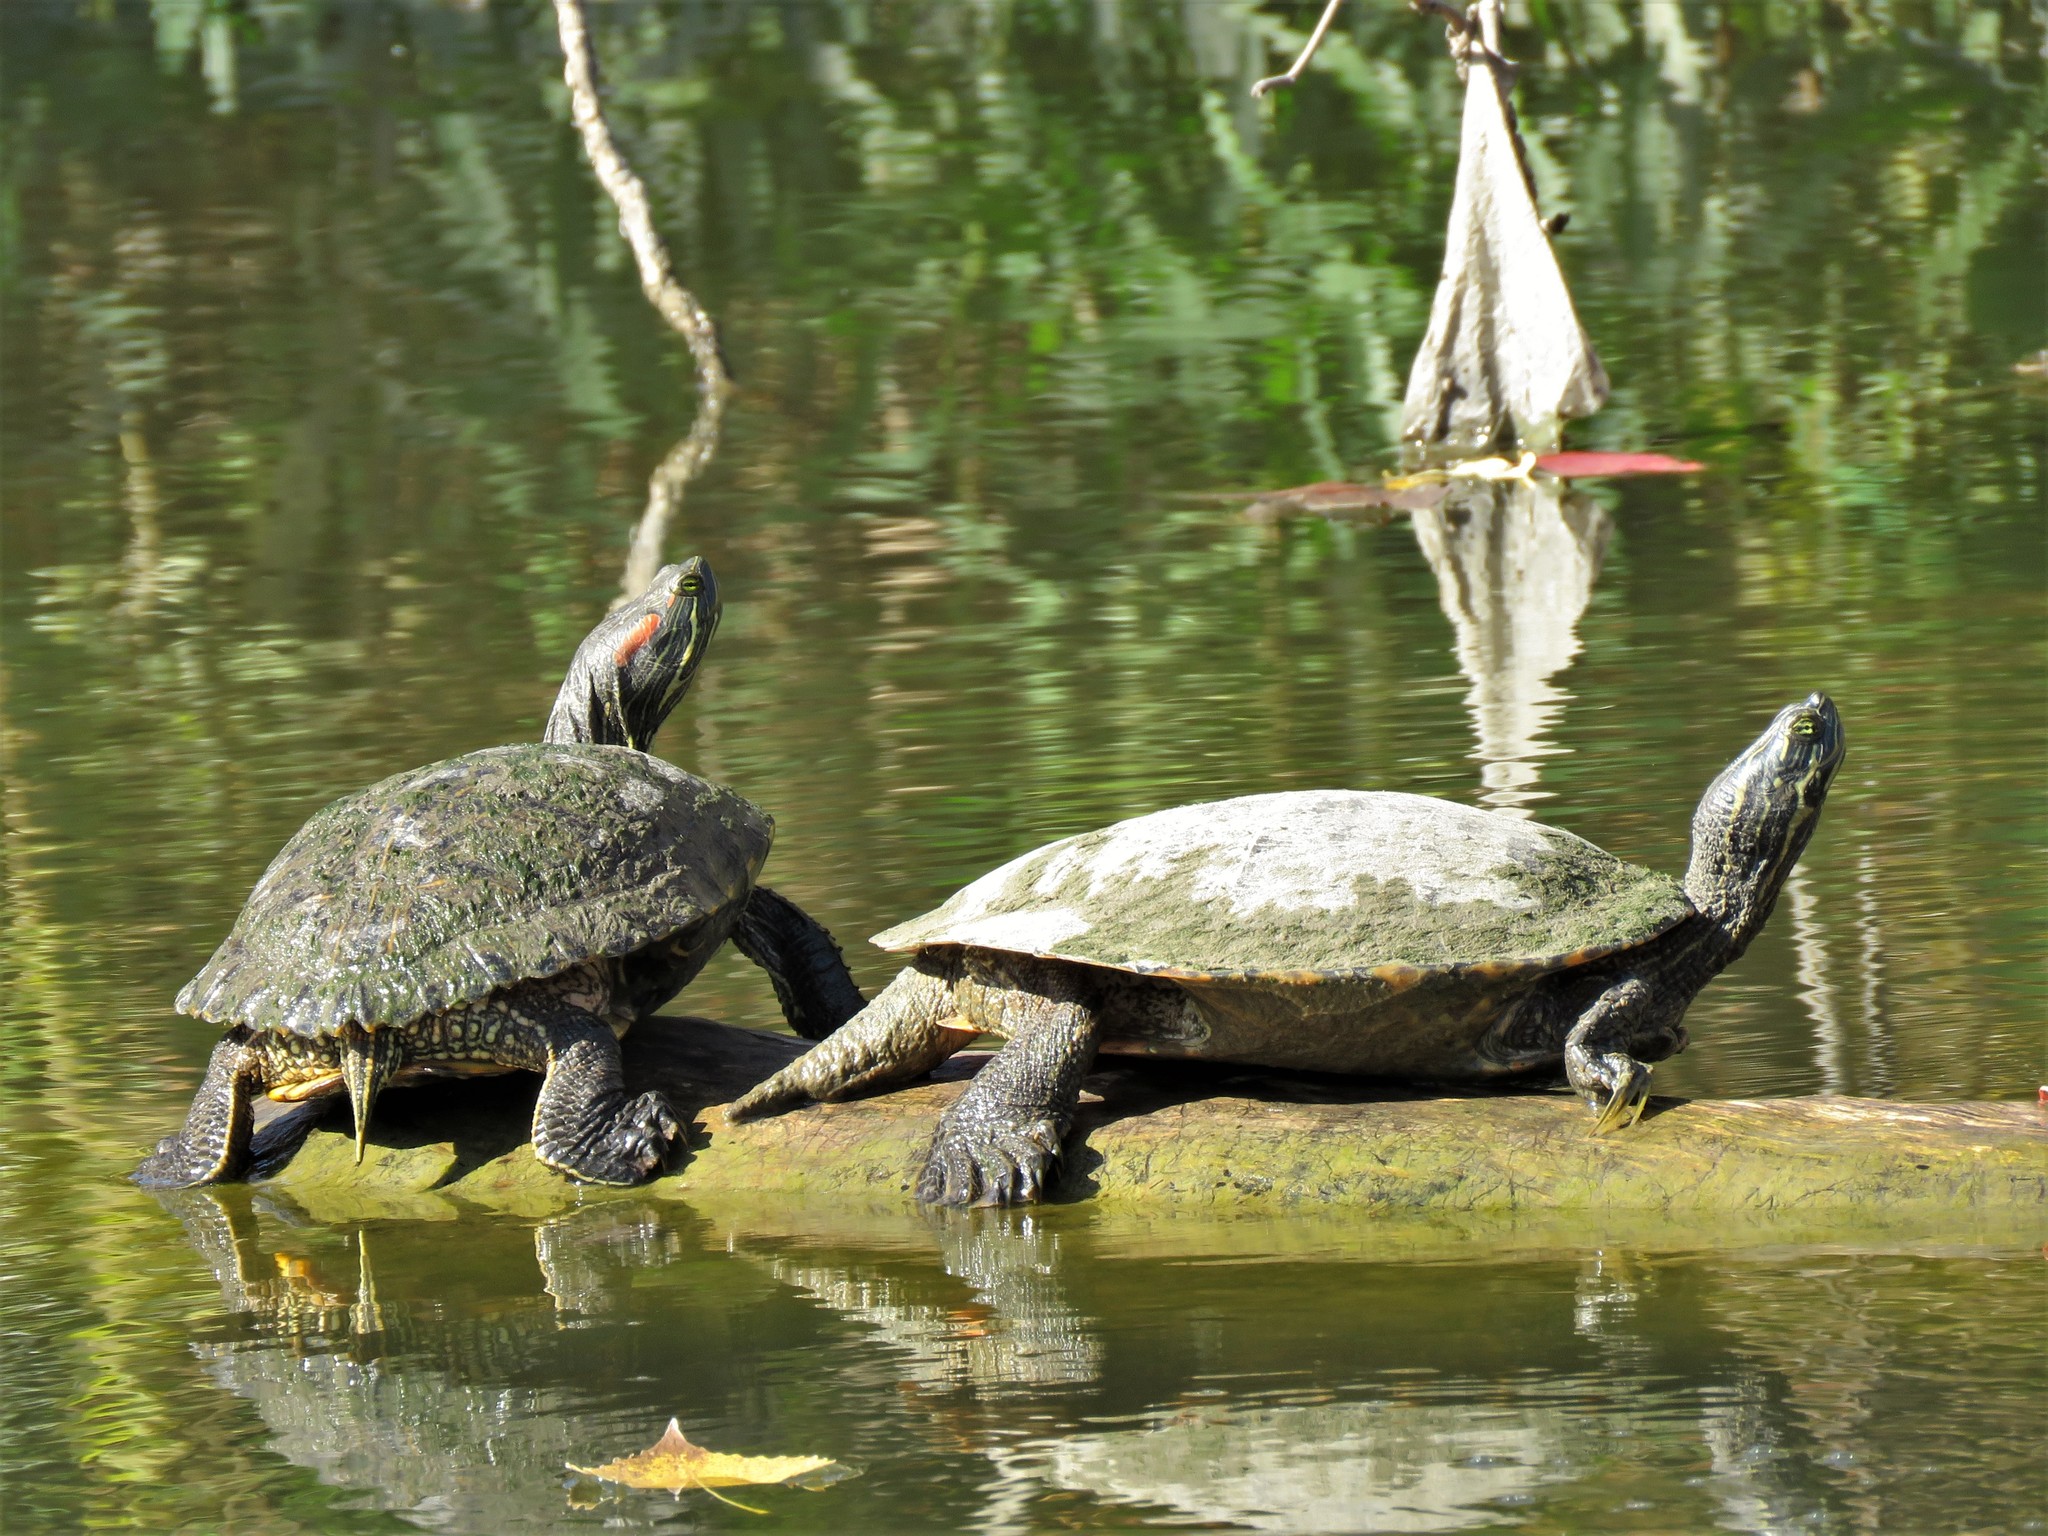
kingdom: Animalia
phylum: Chordata
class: Testudines
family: Emydidae
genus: Trachemys
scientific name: Trachemys scripta
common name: Slider
